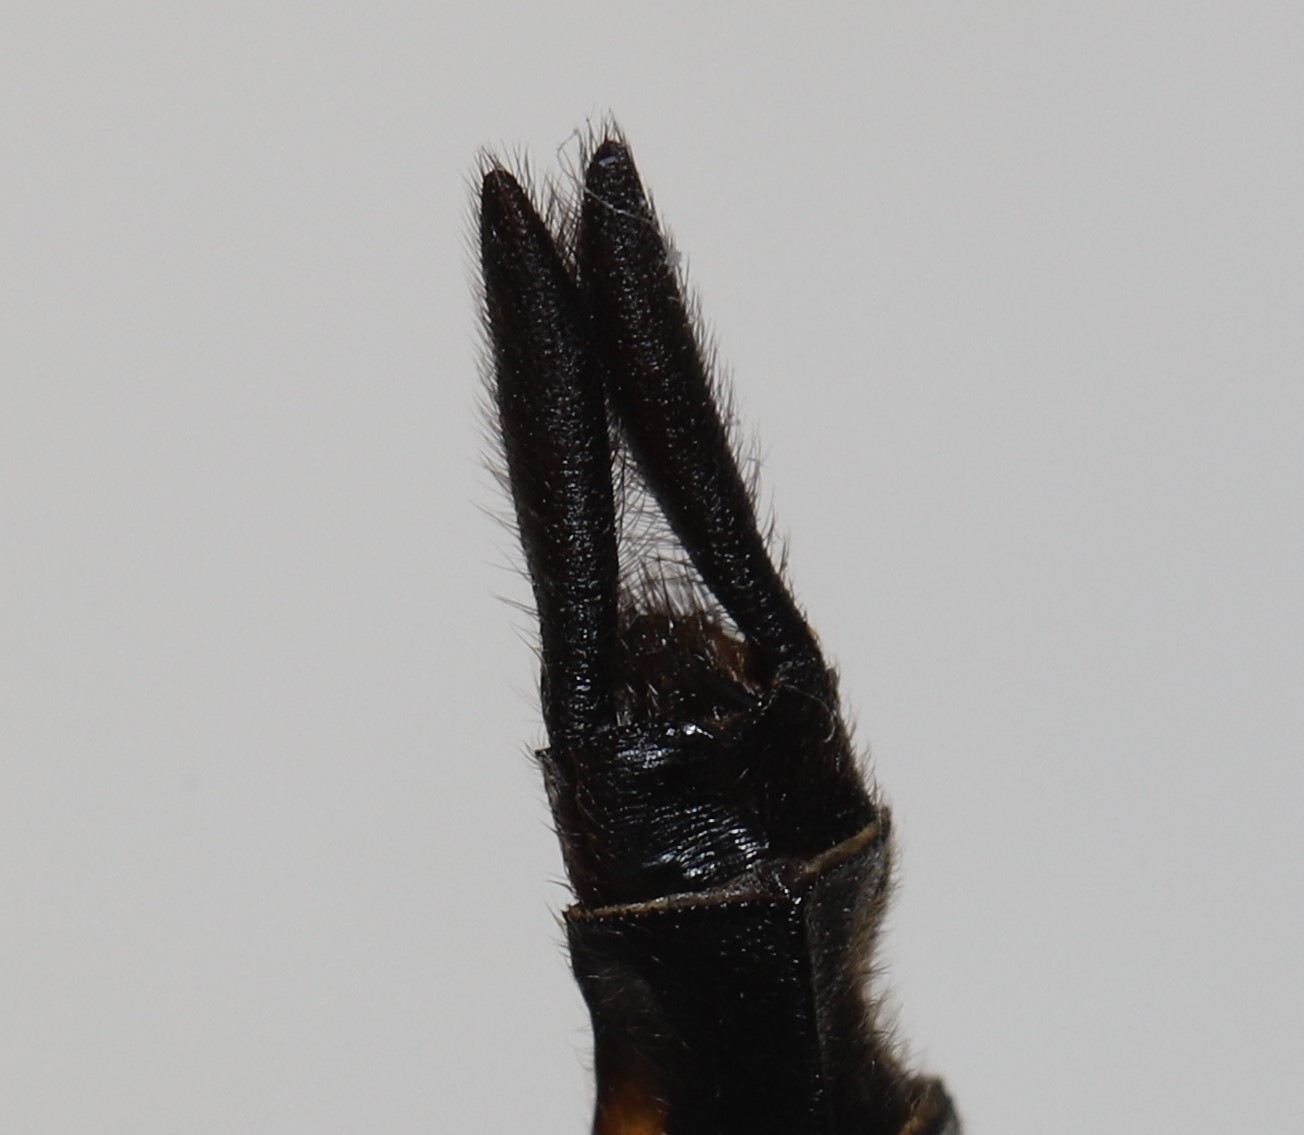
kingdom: Animalia
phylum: Arthropoda
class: Insecta
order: Odonata
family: Corduliidae
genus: Epitheca
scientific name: Epitheca spinigera
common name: Spiny baskettail
